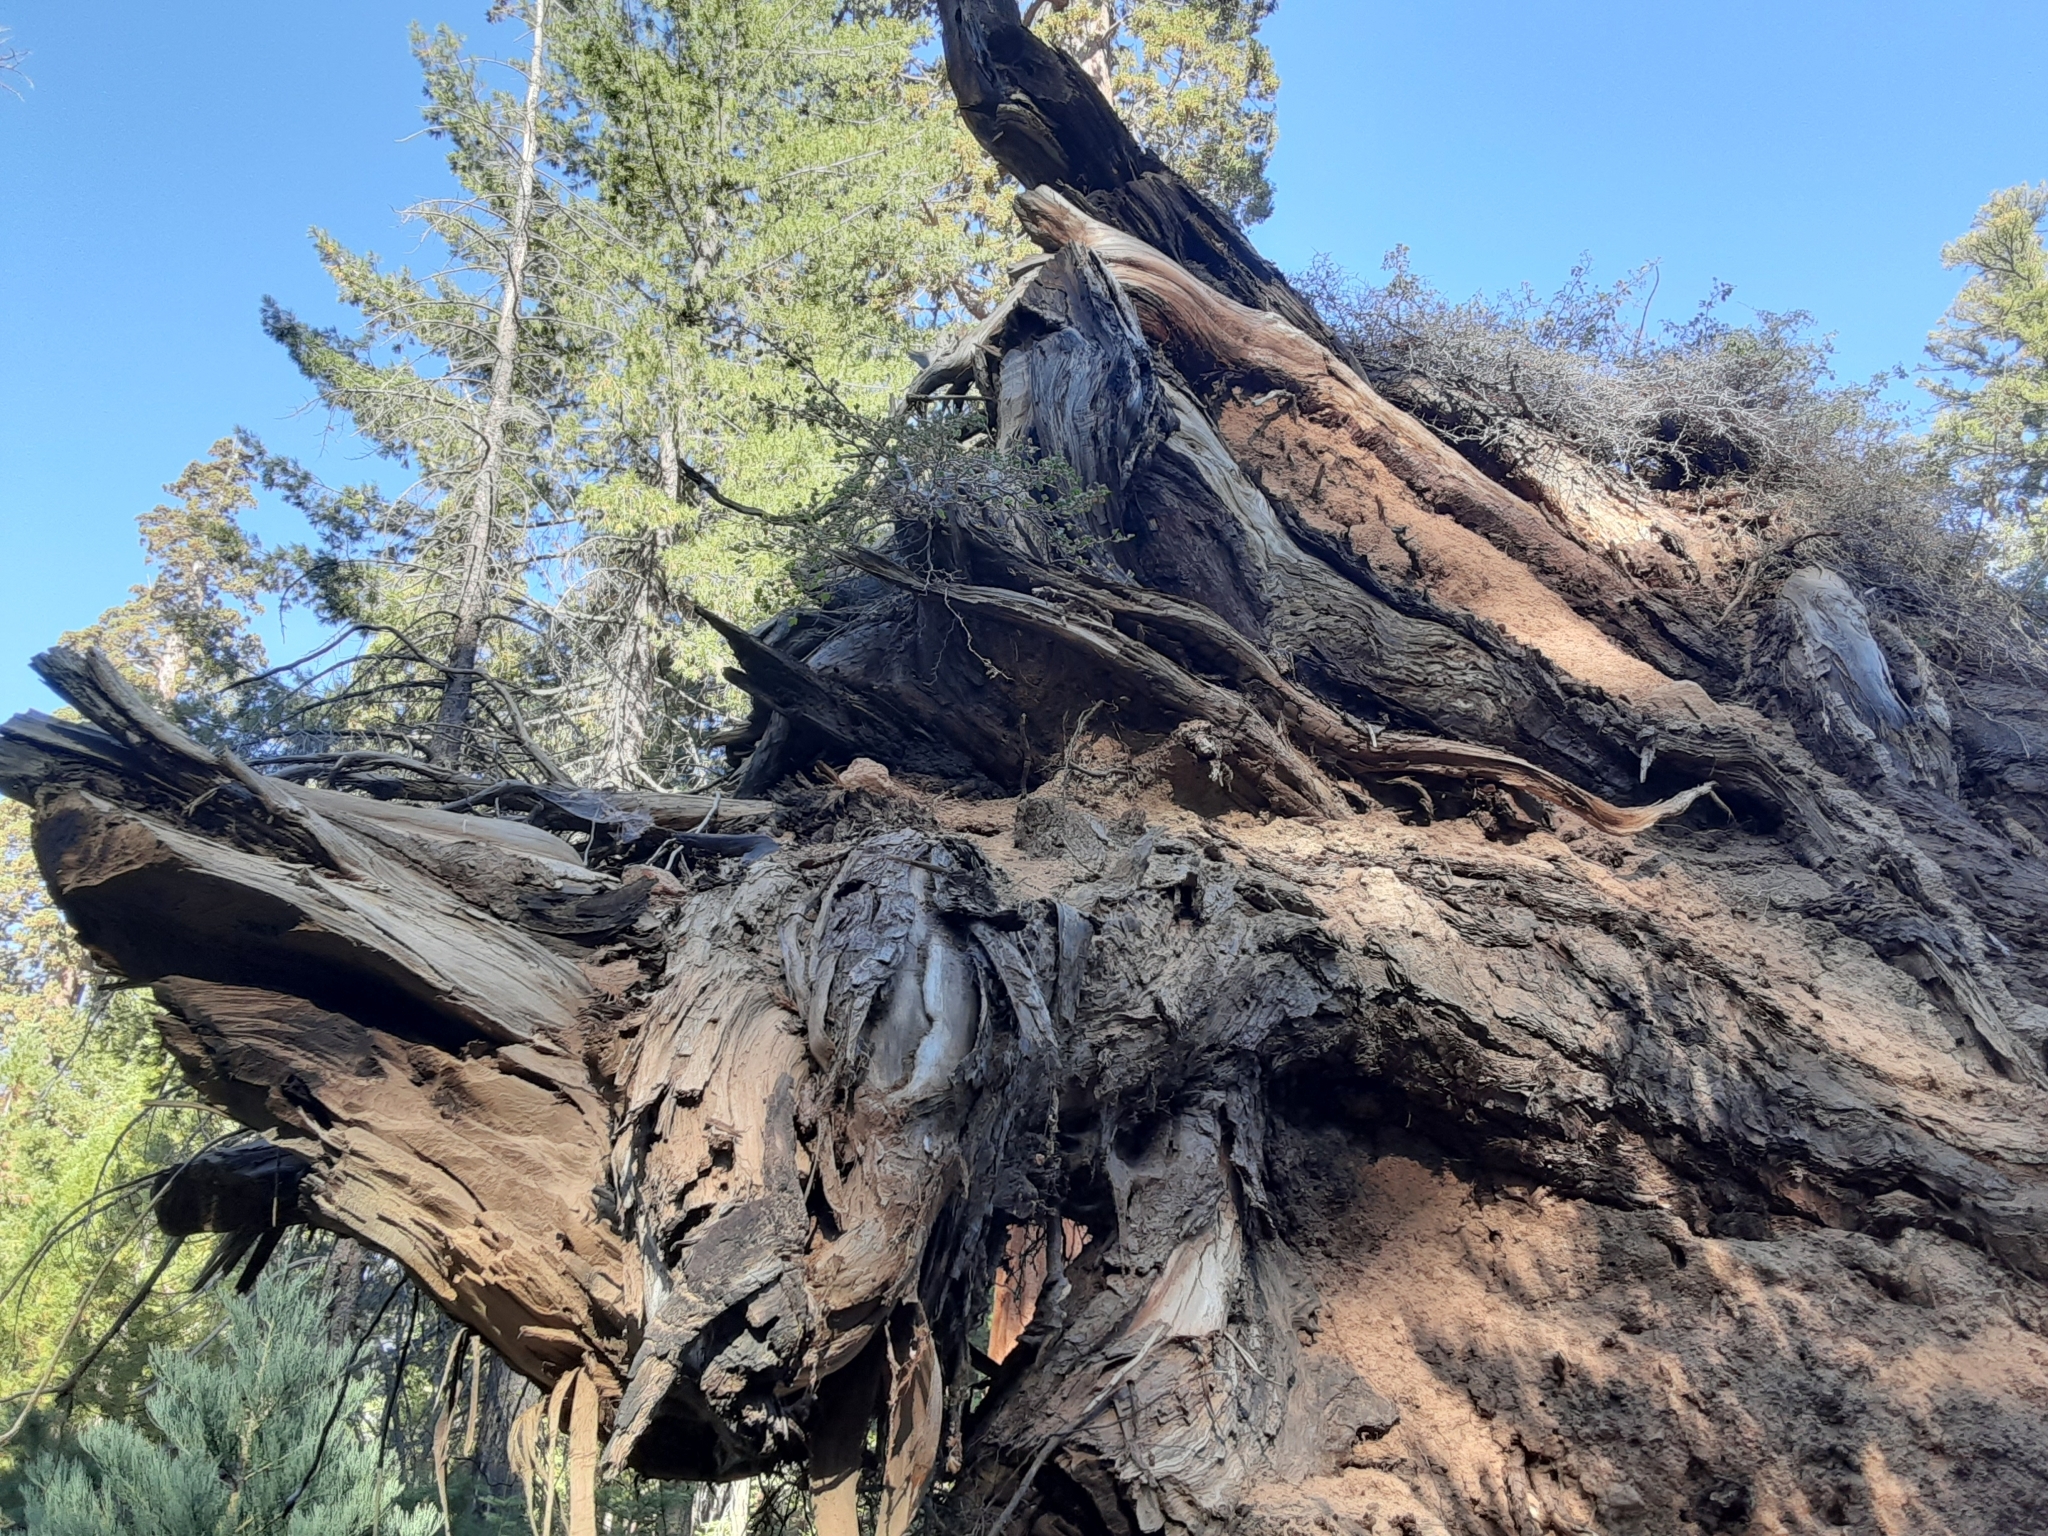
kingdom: Plantae
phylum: Tracheophyta
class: Pinopsida
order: Pinales
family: Cupressaceae
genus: Sequoiadendron
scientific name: Sequoiadendron giganteum
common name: Wellingtonia
